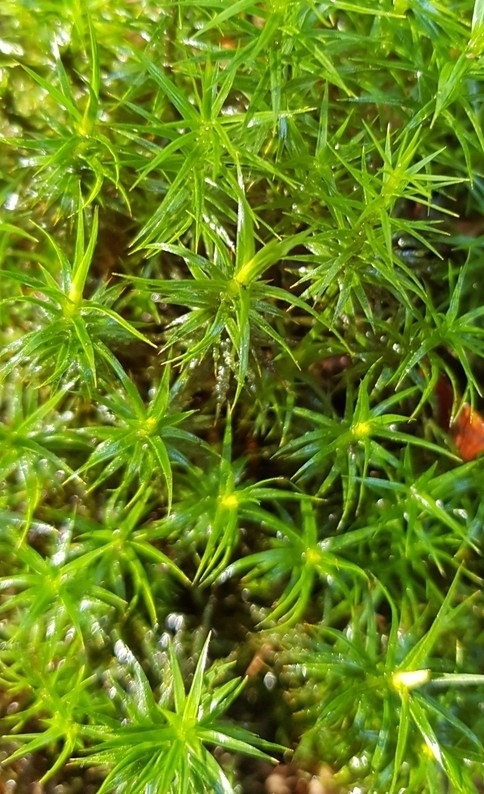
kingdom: Plantae
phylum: Bryophyta
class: Polytrichopsida
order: Polytrichales
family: Polytrichaceae
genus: Polytrichum
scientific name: Polytrichum formosum
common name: Bank haircap moss
